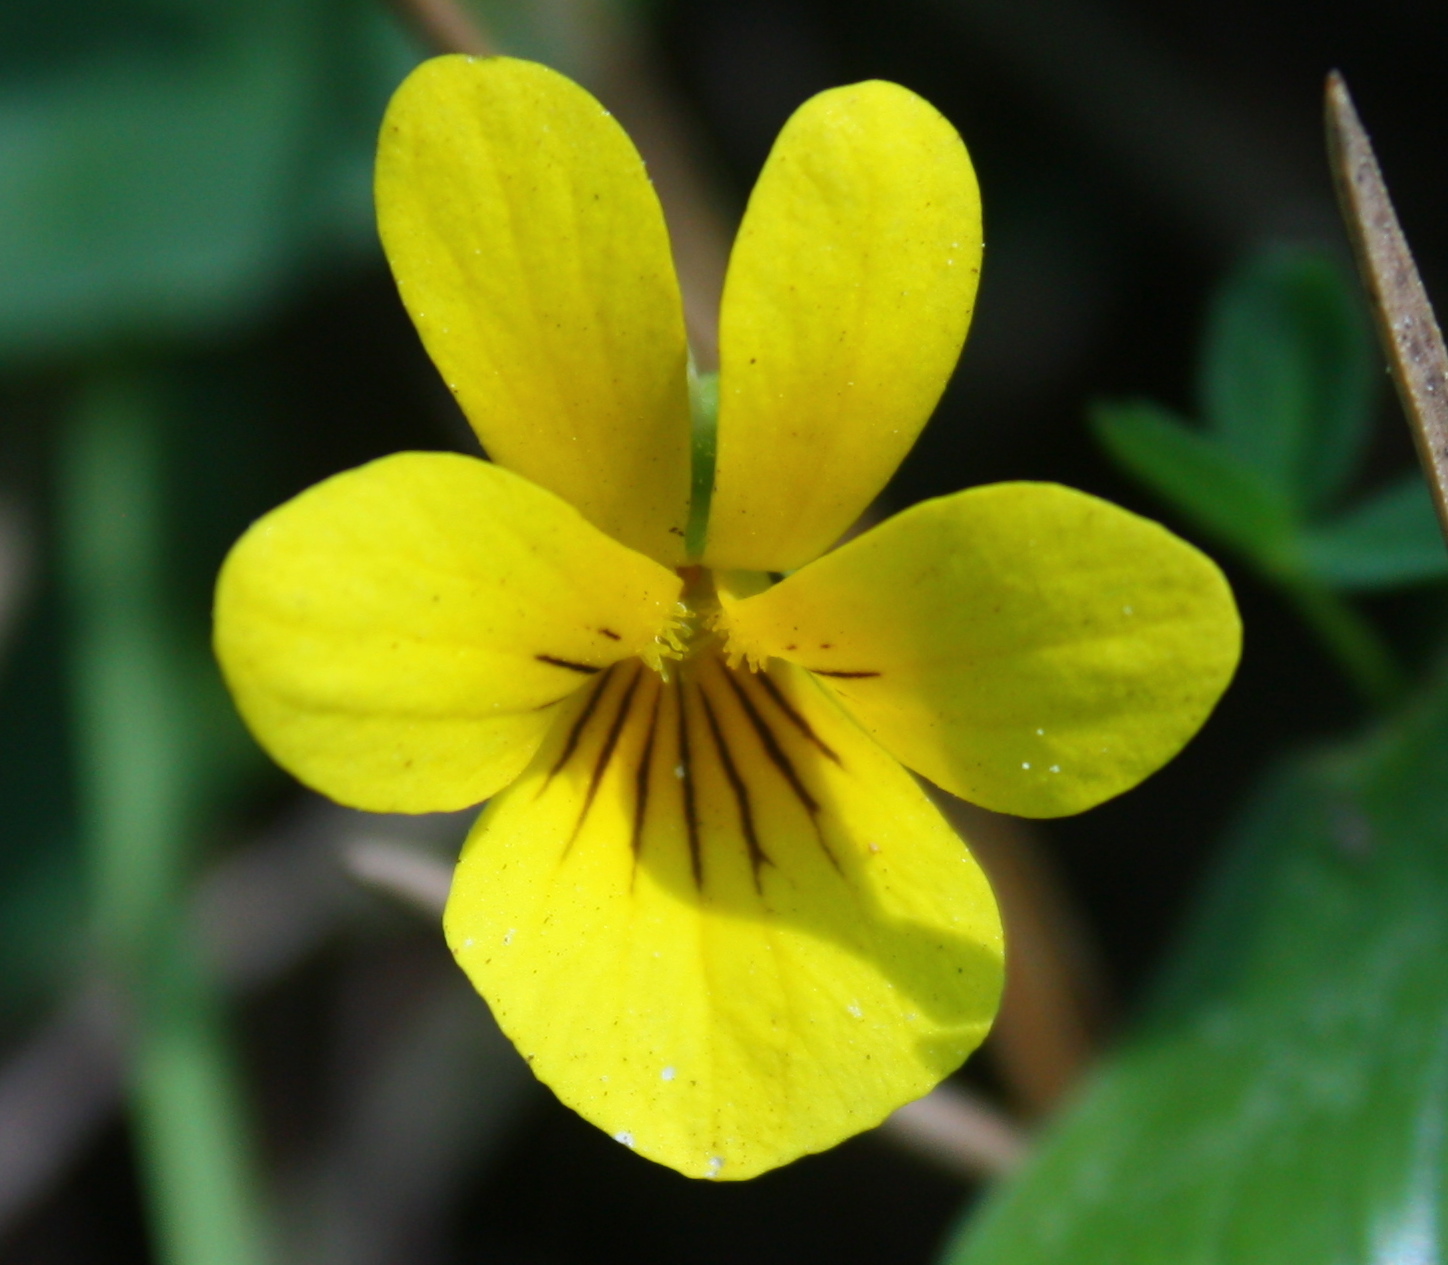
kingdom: Plantae
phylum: Tracheophyta
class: Magnoliopsida
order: Malpighiales
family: Violaceae
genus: Viola
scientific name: Viola sempervirens
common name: Evergreen violet
